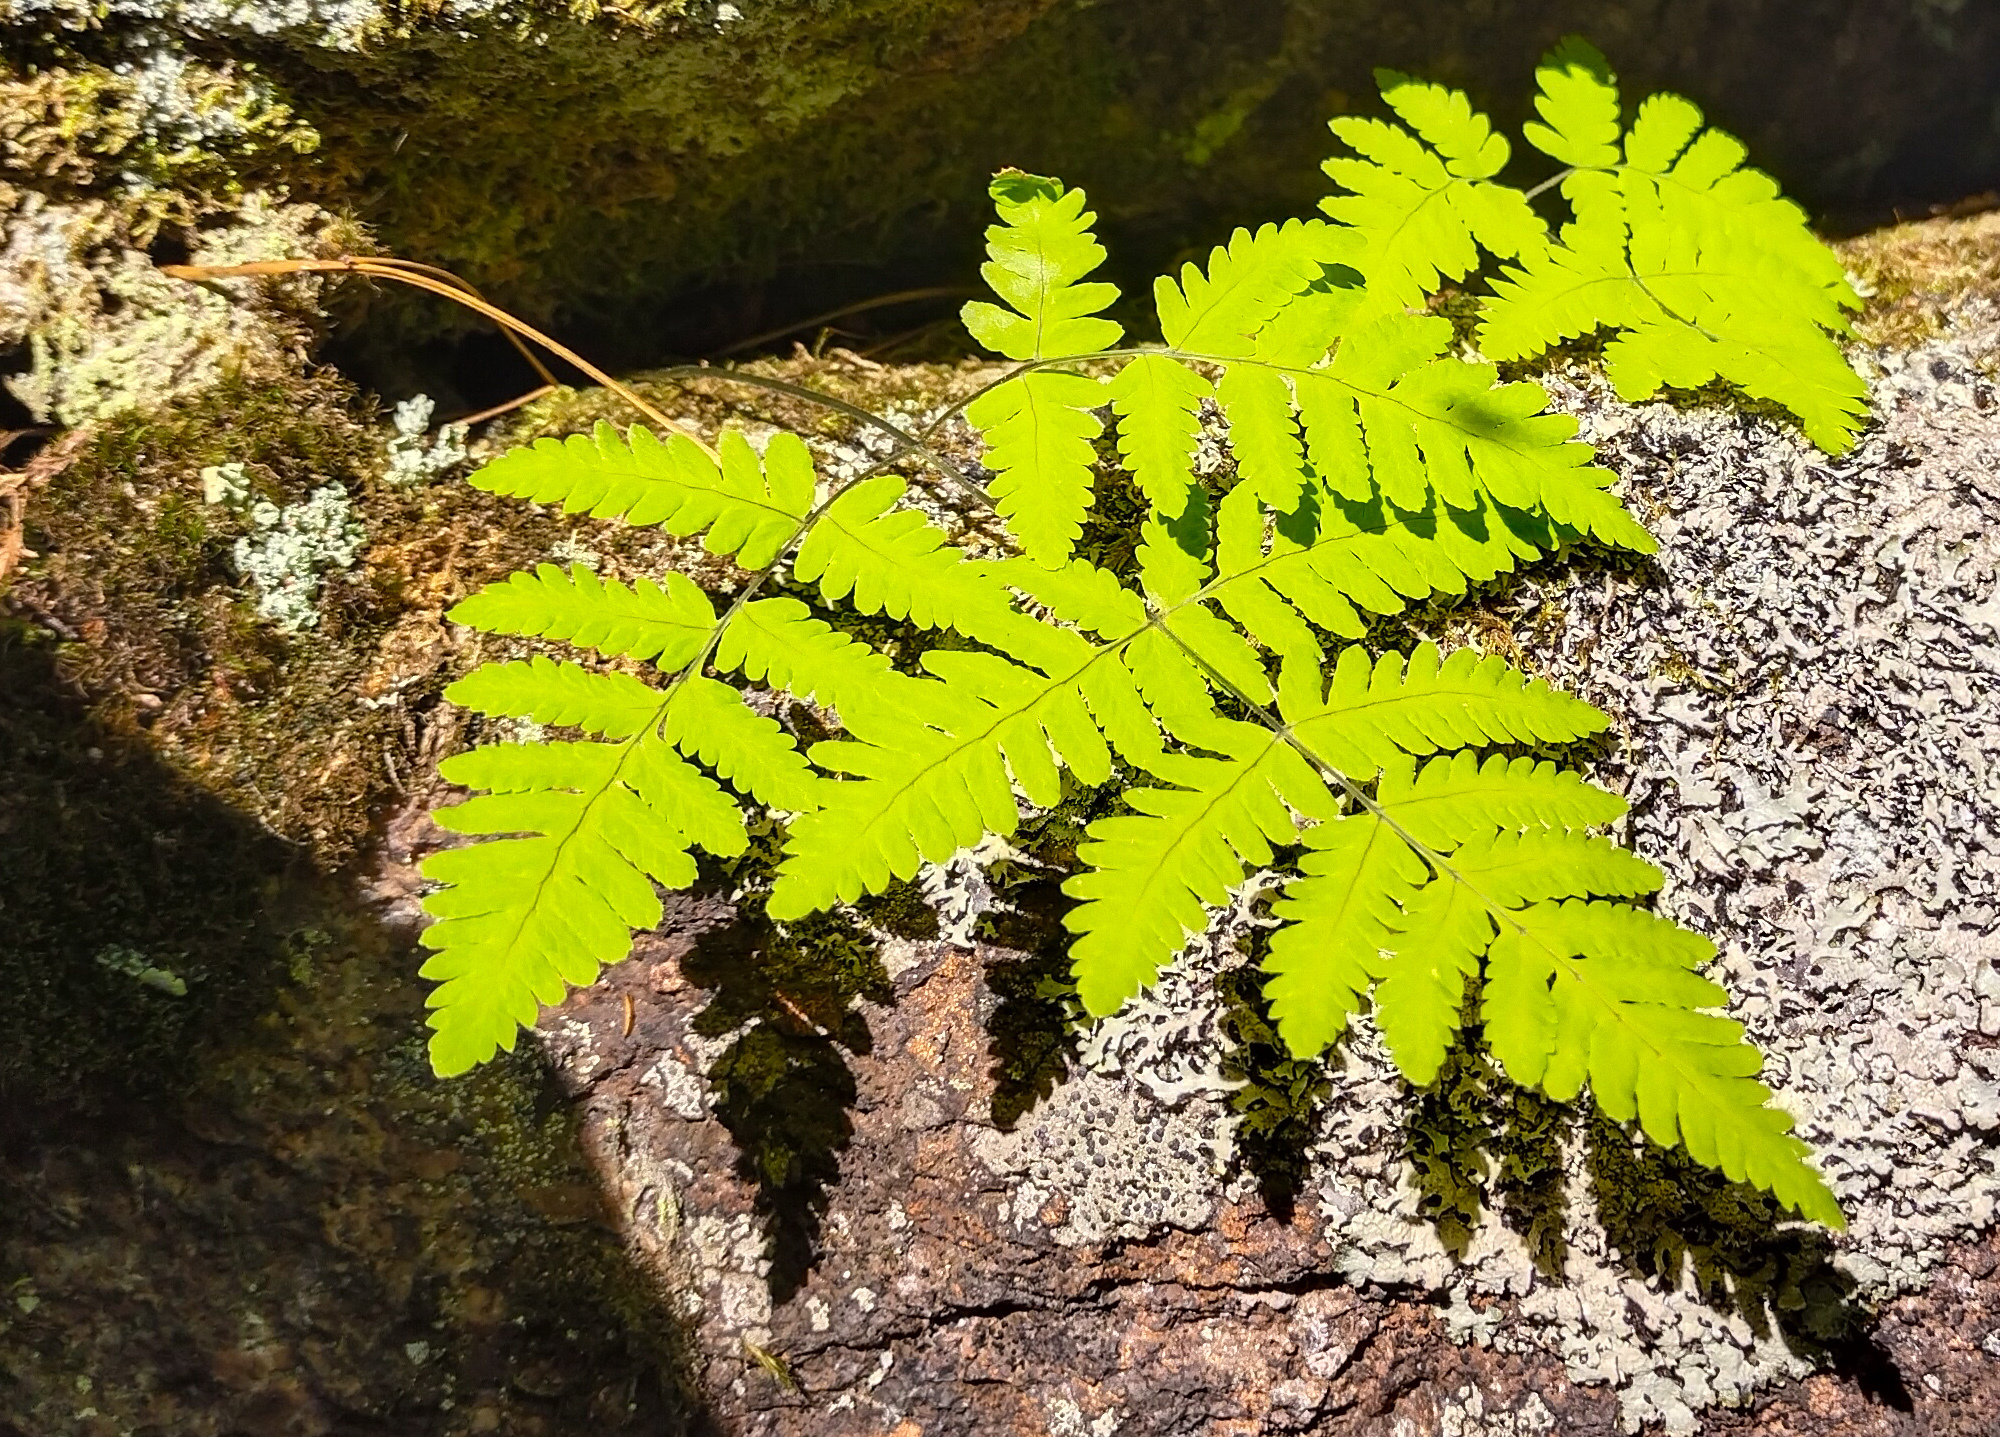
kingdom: Plantae
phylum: Tracheophyta
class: Polypodiopsida
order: Polypodiales
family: Cystopteridaceae
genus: Gymnocarpium
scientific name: Gymnocarpium jessoense
